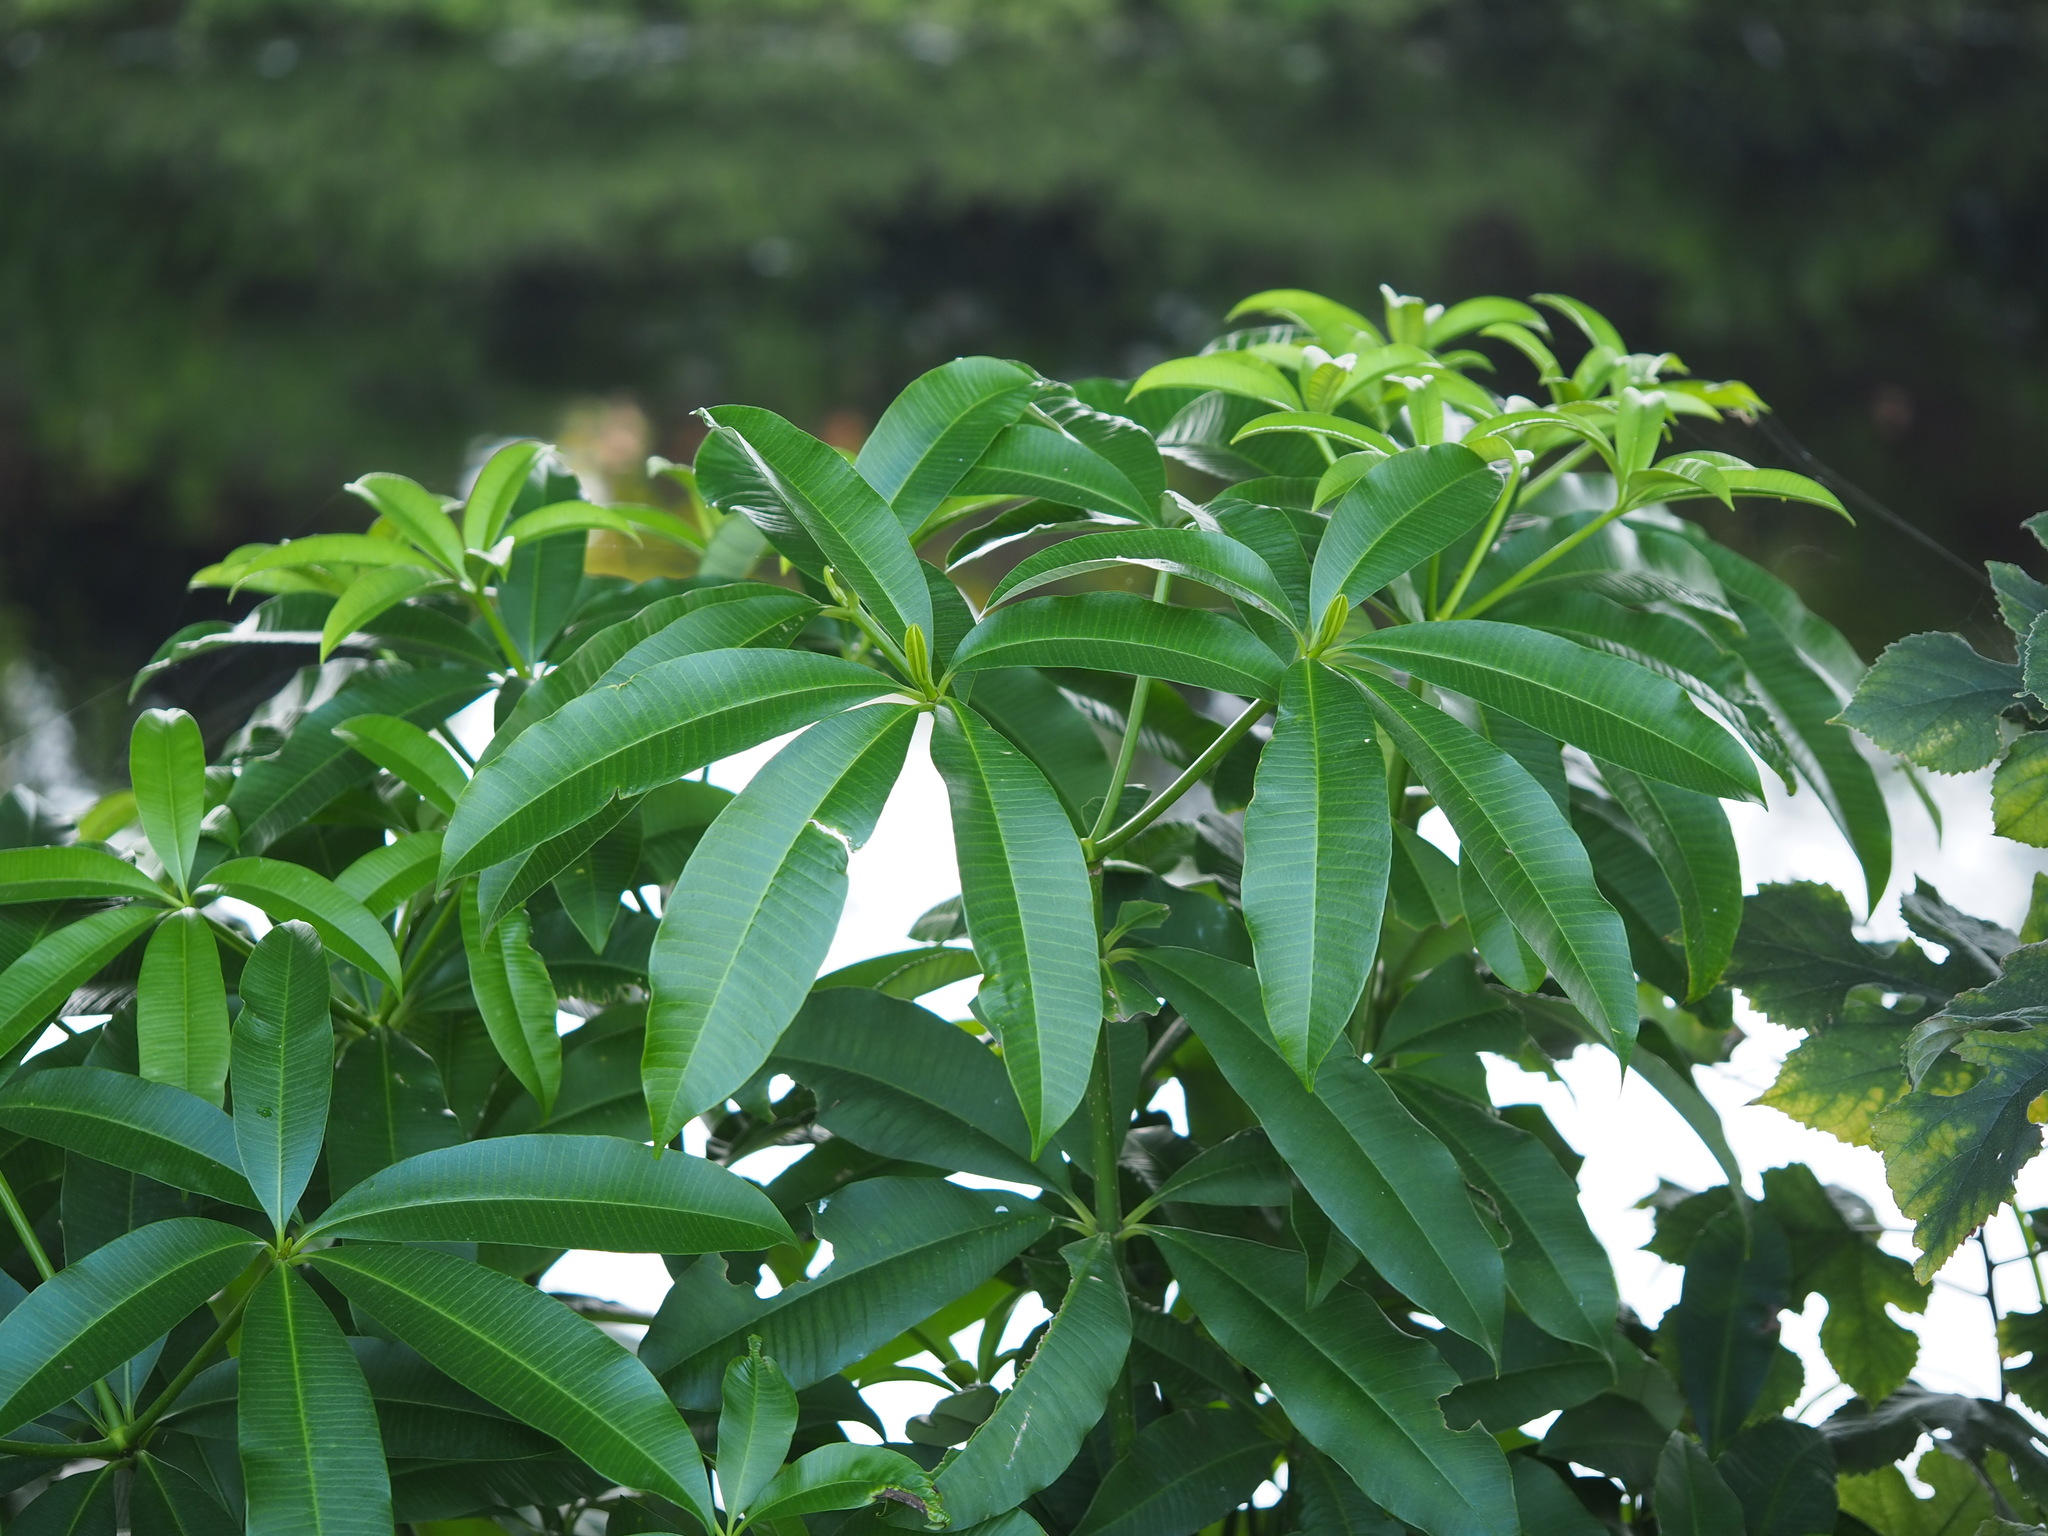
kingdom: Plantae
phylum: Tracheophyta
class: Magnoliopsida
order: Gentianales
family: Apocynaceae
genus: Alstonia
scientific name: Alstonia scholaris
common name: White cheesewood
